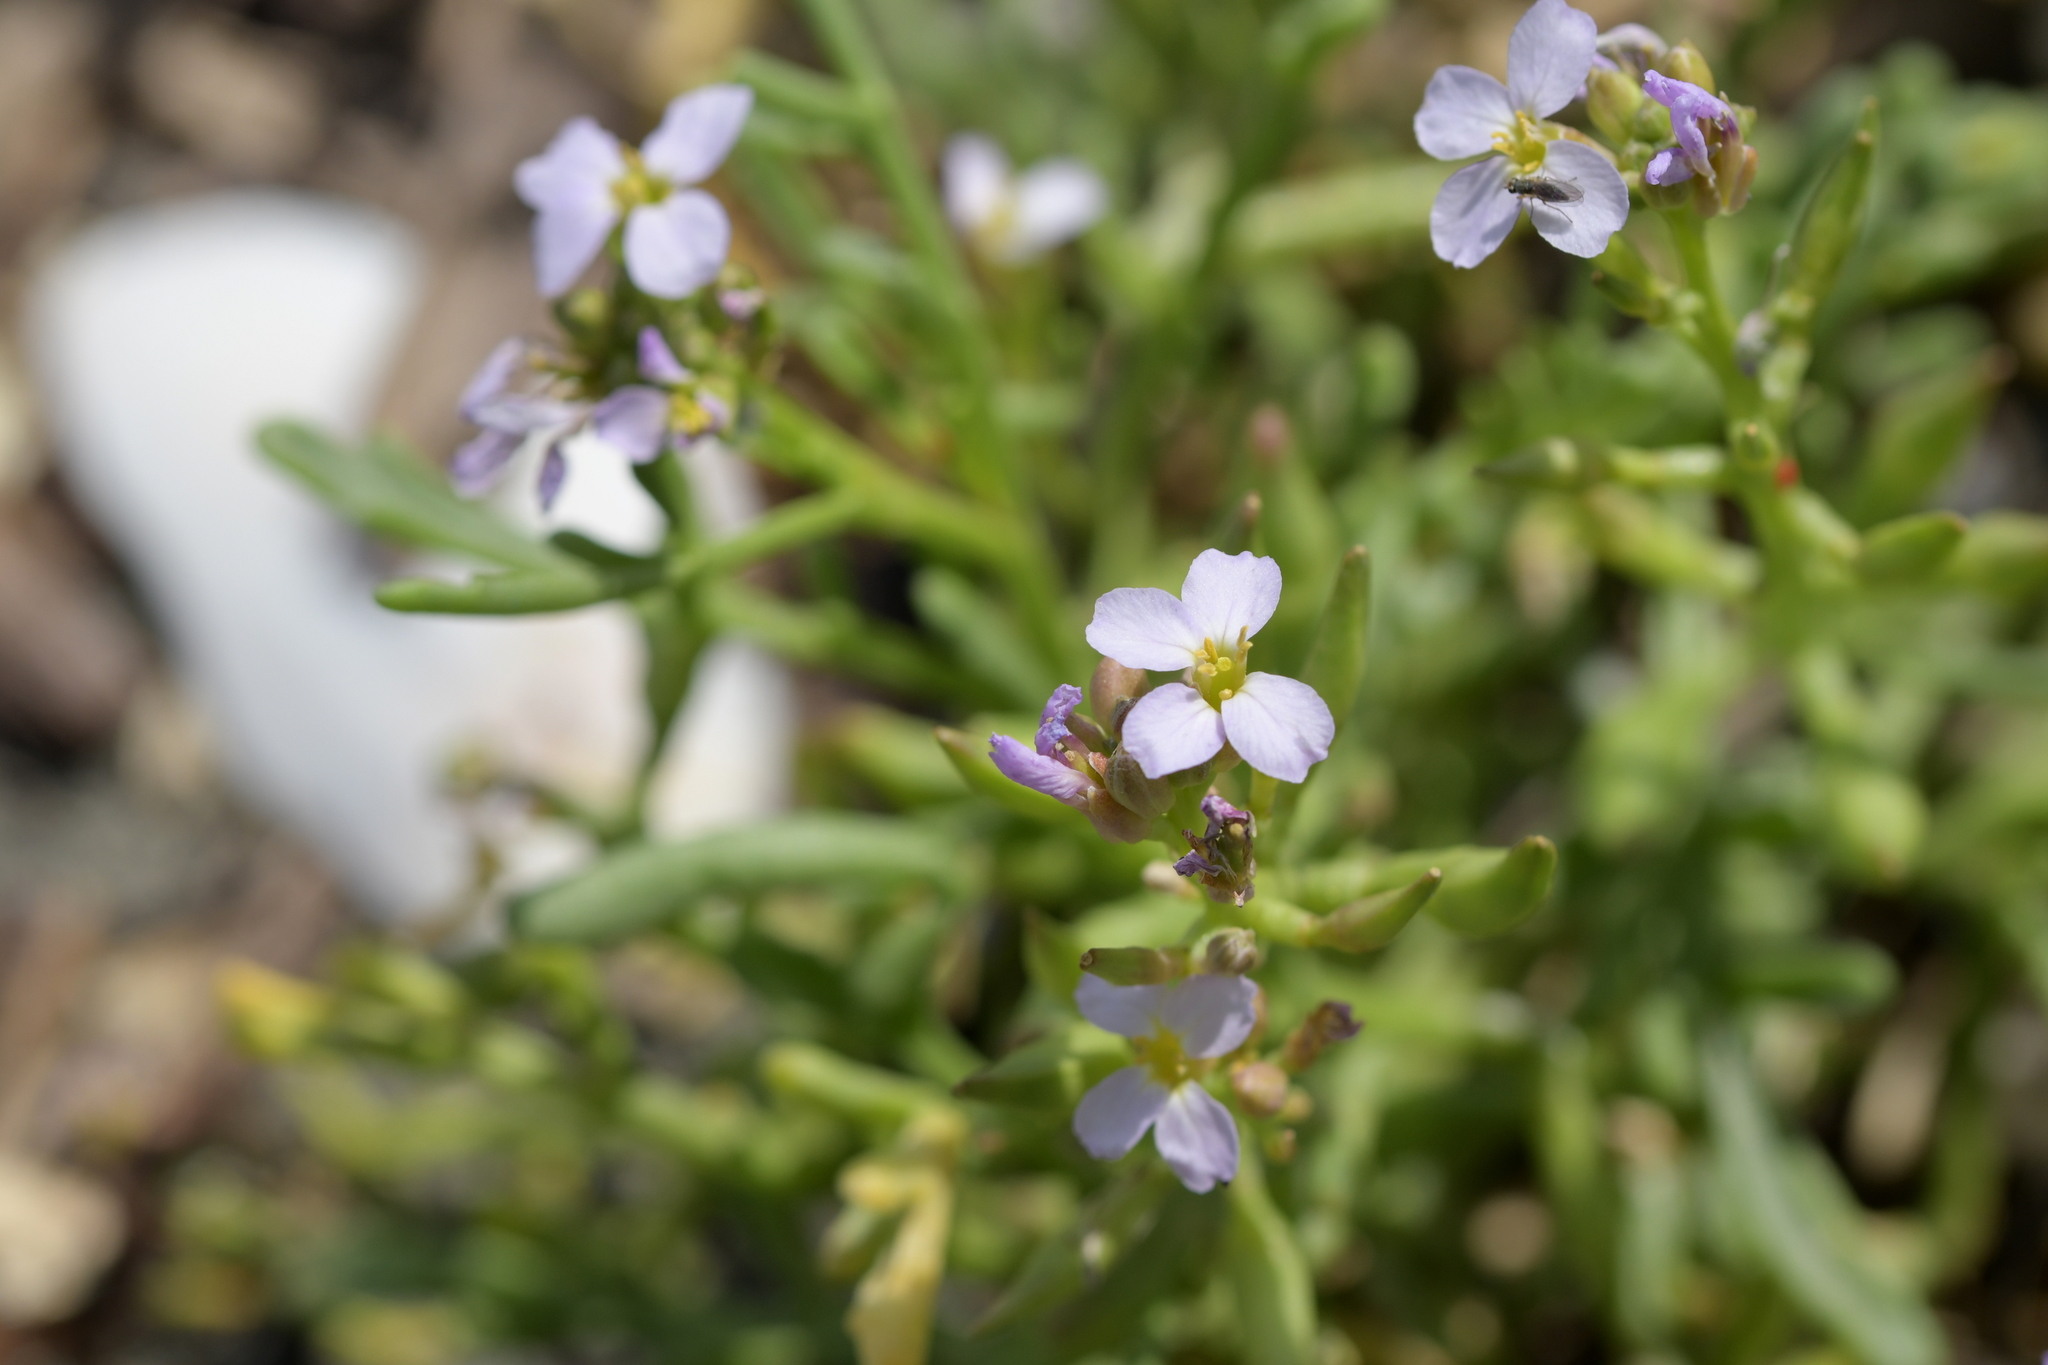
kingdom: Plantae
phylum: Tracheophyta
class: Magnoliopsida
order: Brassicales
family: Brassicaceae
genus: Cakile
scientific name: Cakile maritima
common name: Sea rocket
